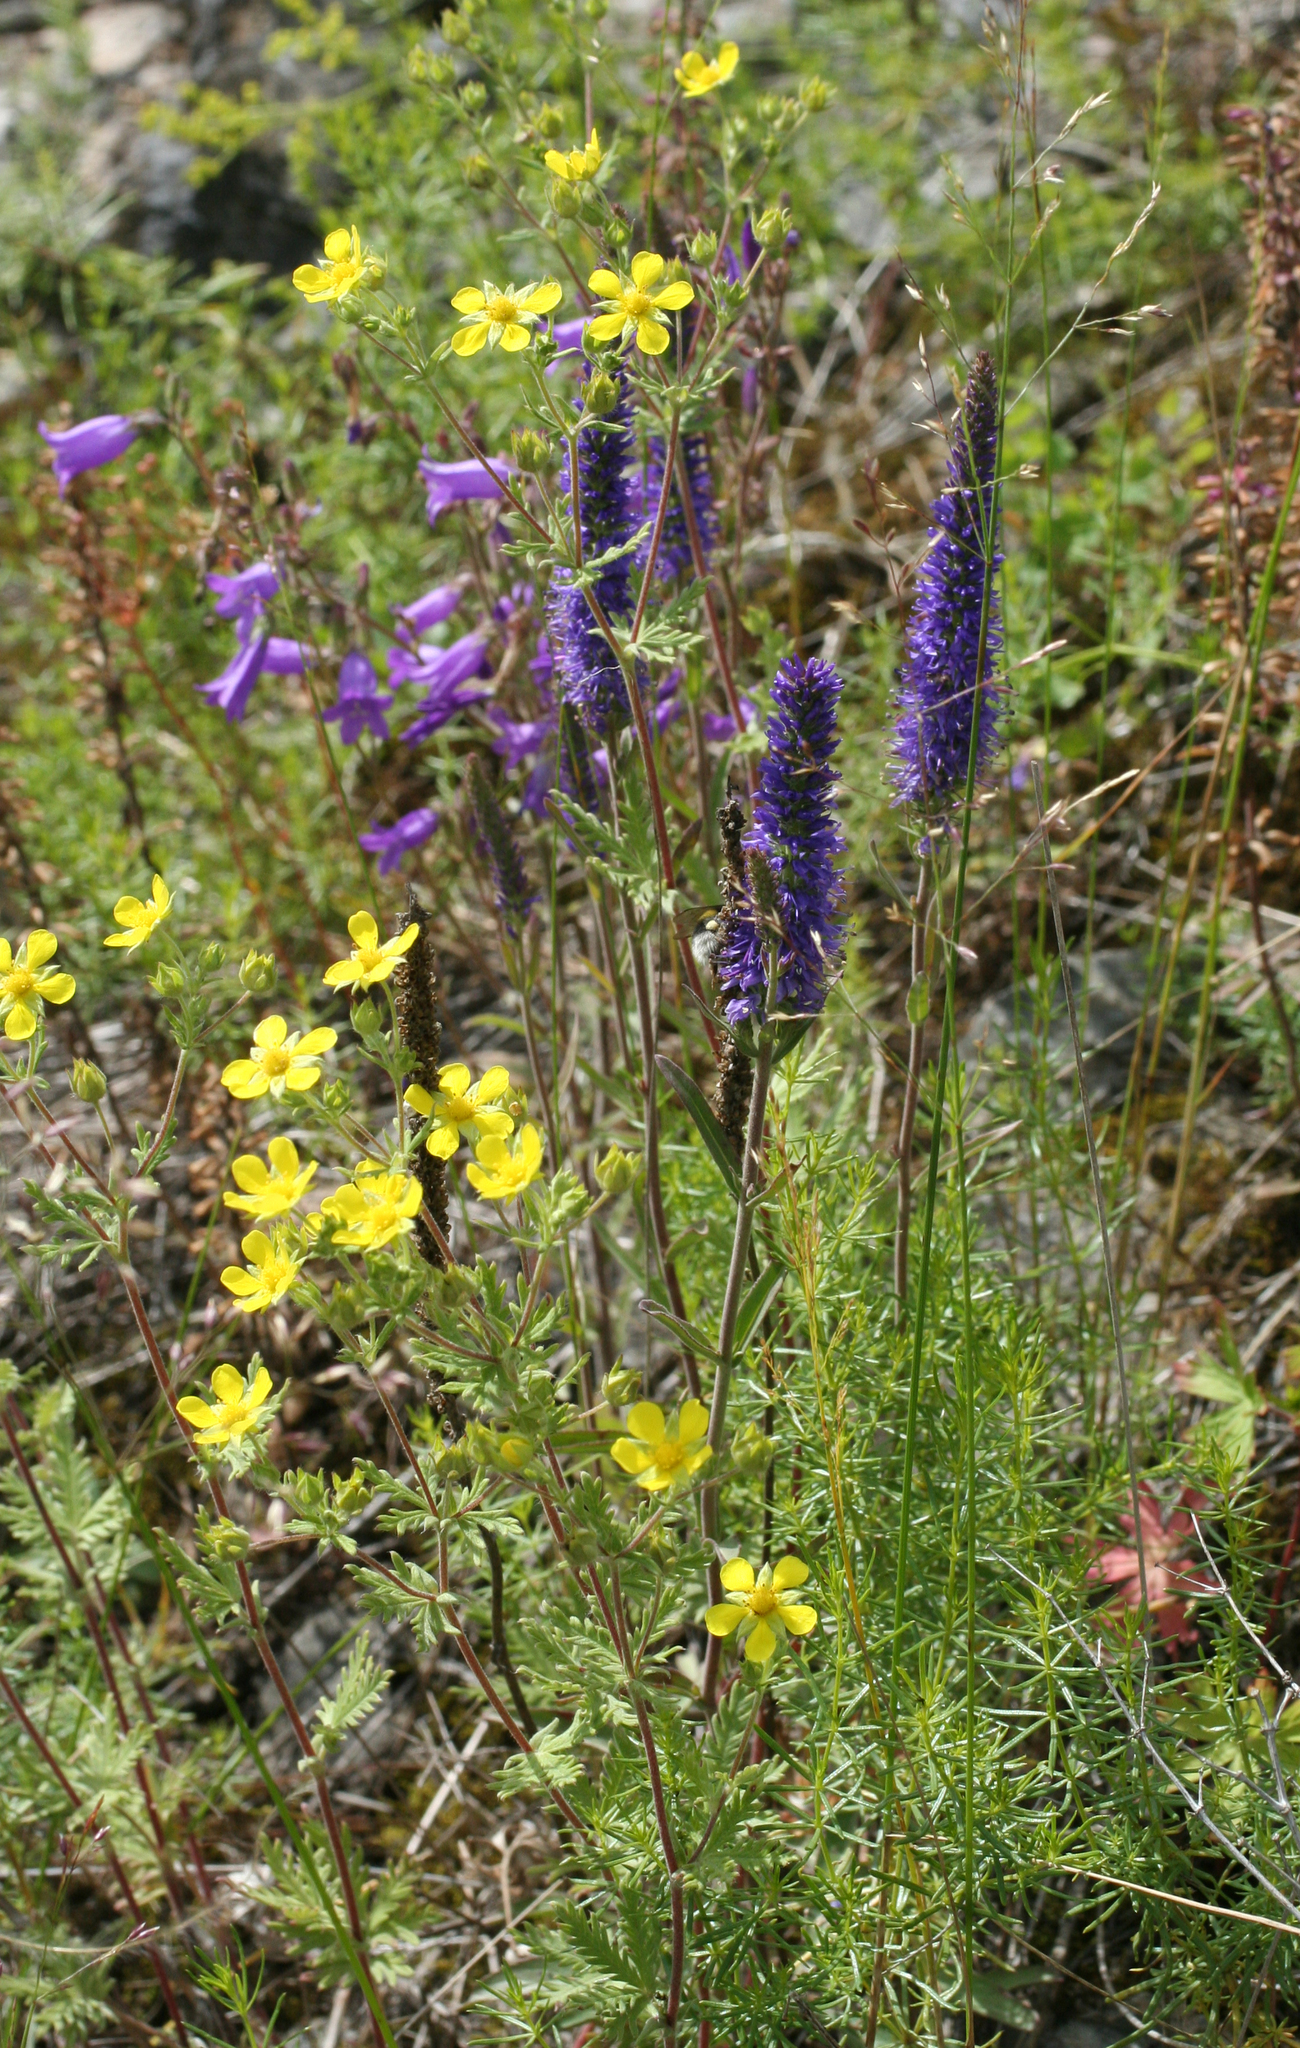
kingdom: Plantae
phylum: Tracheophyta
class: Magnoliopsida
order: Lamiales
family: Plantaginaceae
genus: Veronica
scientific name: Veronica spicata
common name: Spiked speedwell
